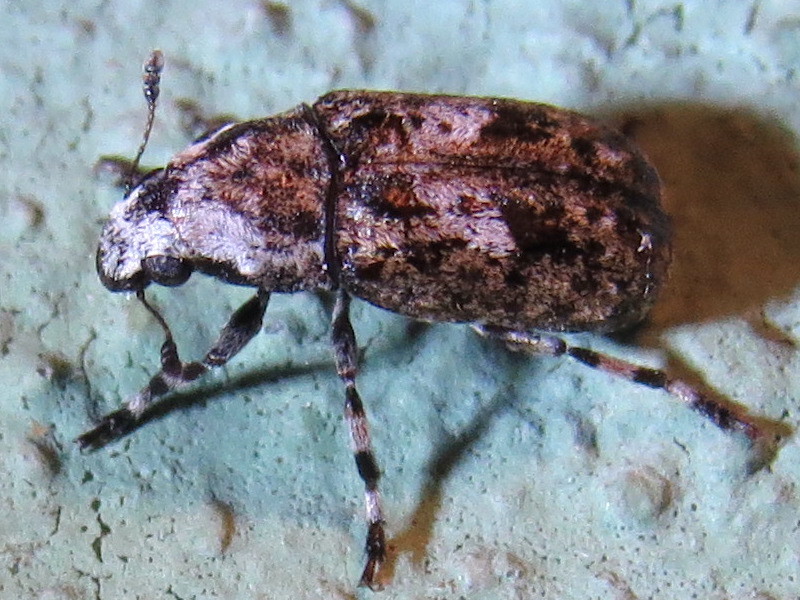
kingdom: Animalia
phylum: Arthropoda
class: Insecta
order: Coleoptera
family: Anthribidae
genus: Euparius
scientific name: Euparius marmoreus
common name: Marbled fungus weevil
